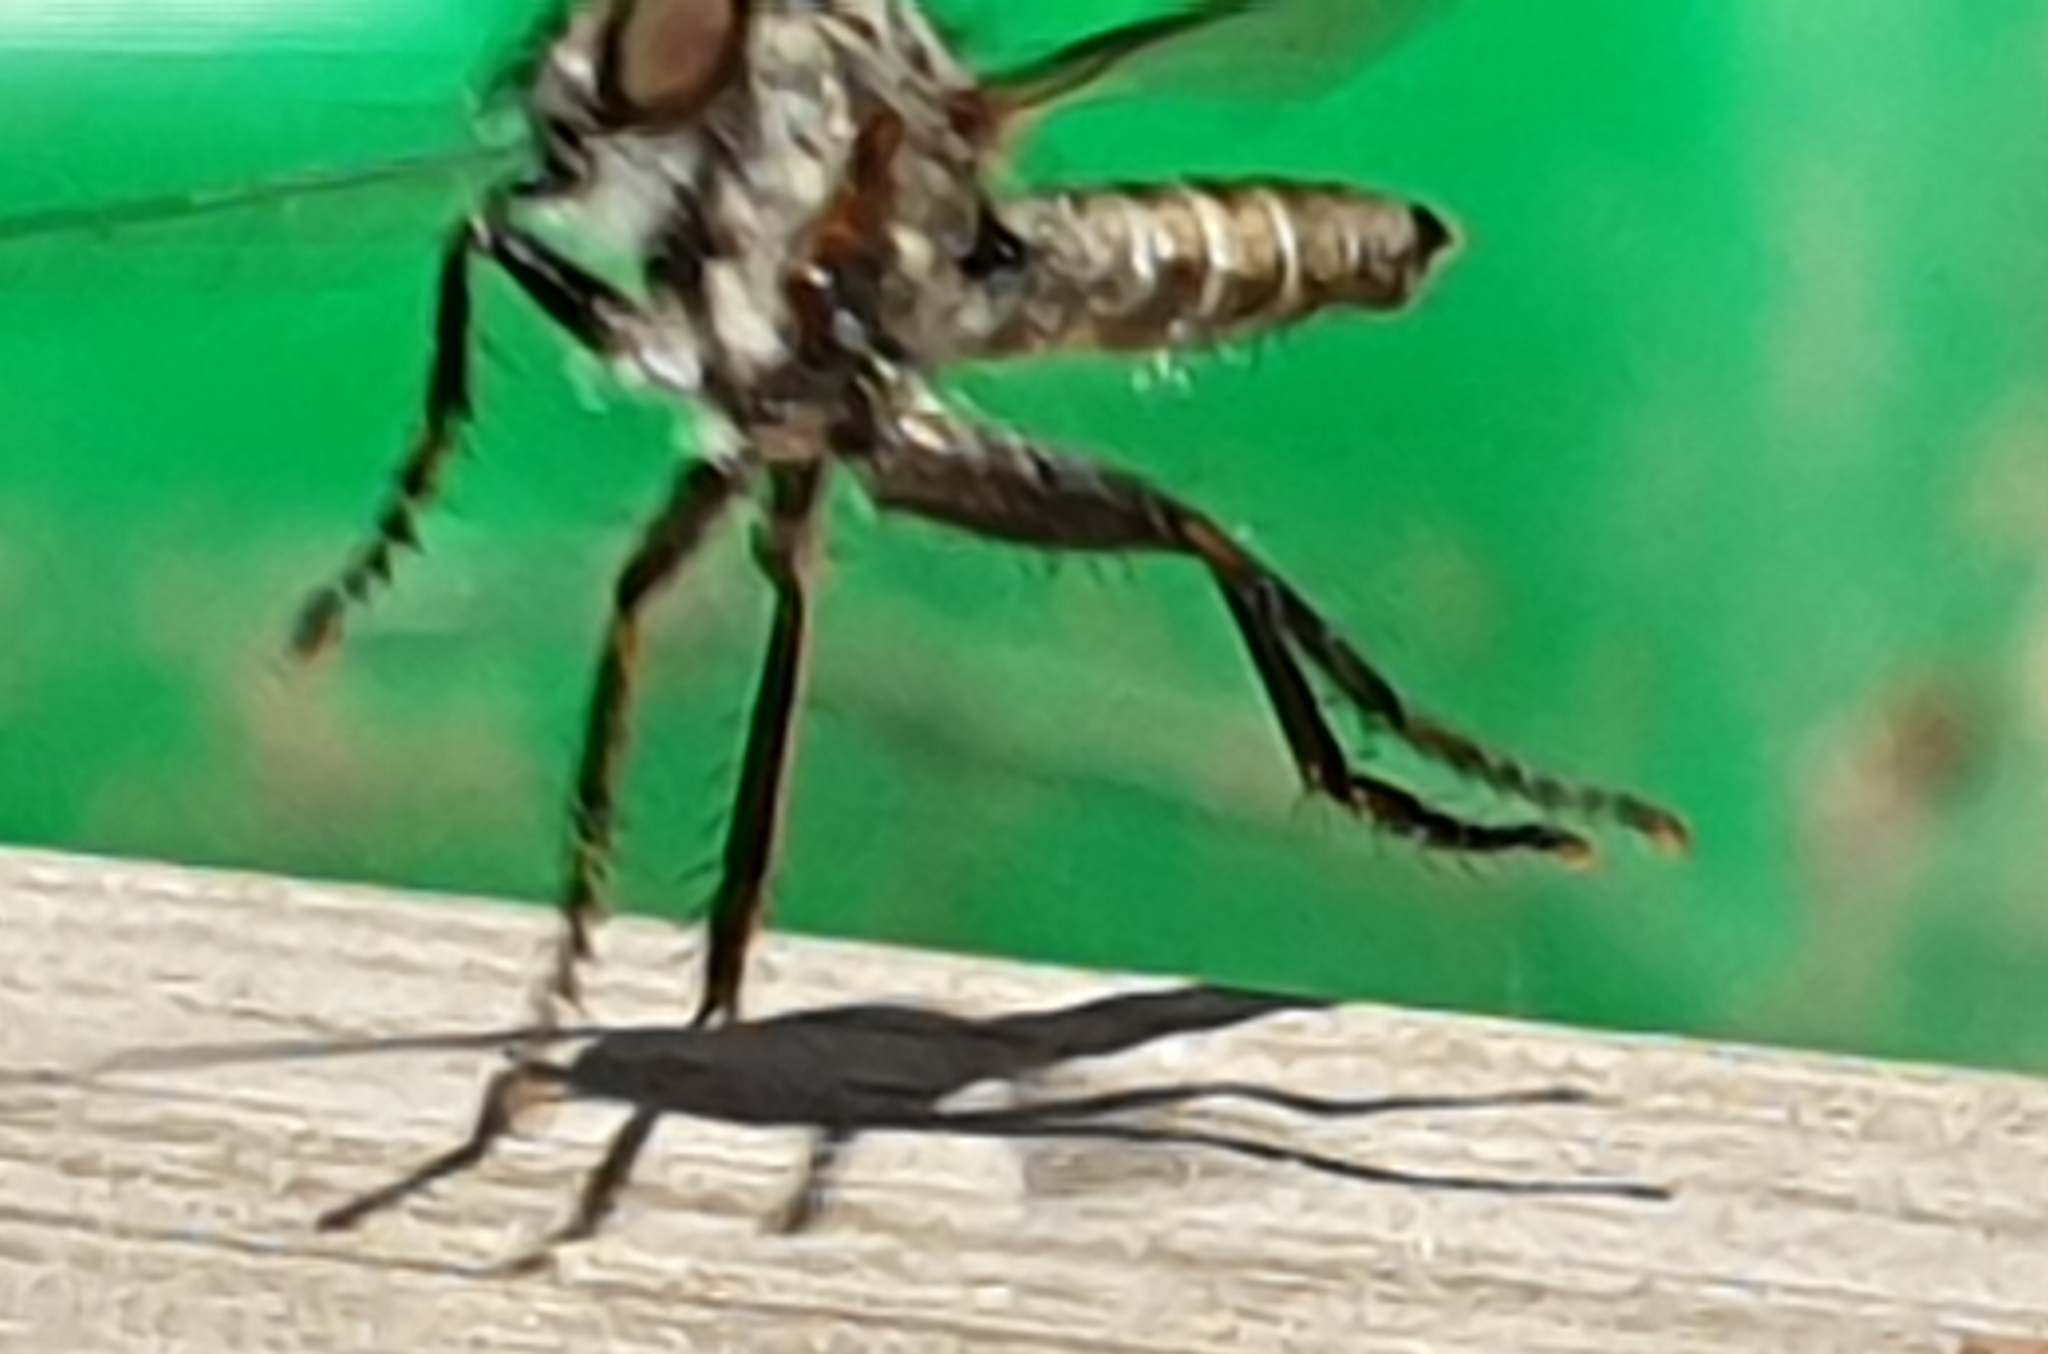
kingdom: Animalia
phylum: Arthropoda
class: Insecta
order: Diptera
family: Asilidae
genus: Machimus
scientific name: Machimus atricapillus
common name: Kite-tailed robberfly
